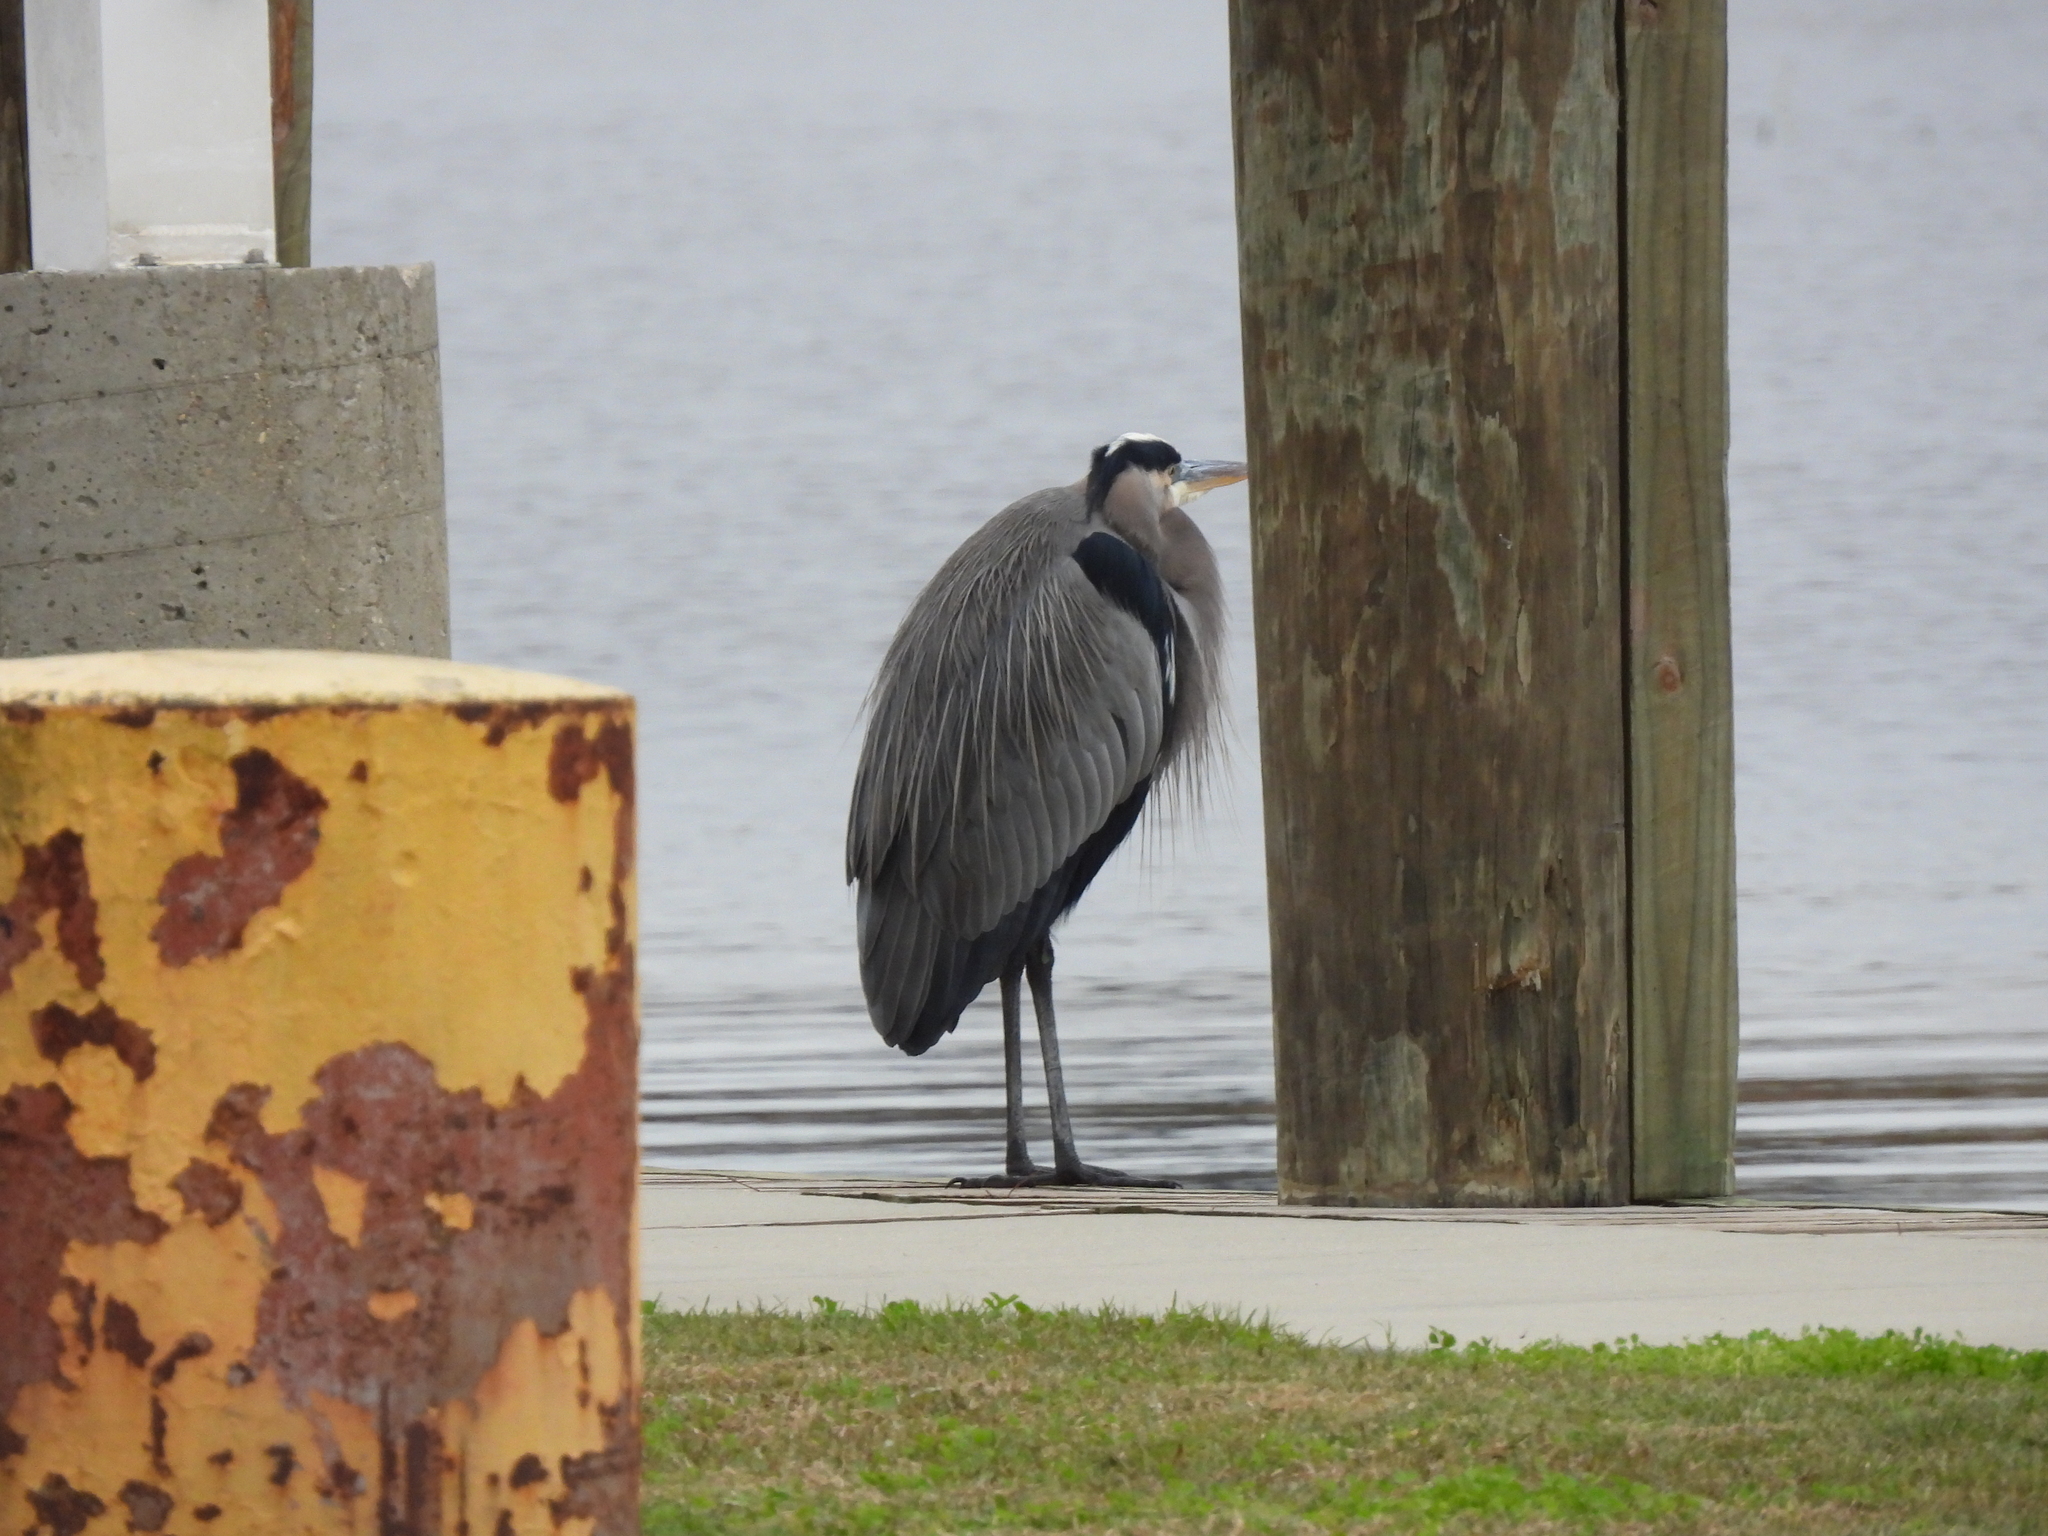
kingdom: Animalia
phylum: Chordata
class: Aves
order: Pelecaniformes
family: Ardeidae
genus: Ardea
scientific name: Ardea herodias
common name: Great blue heron
